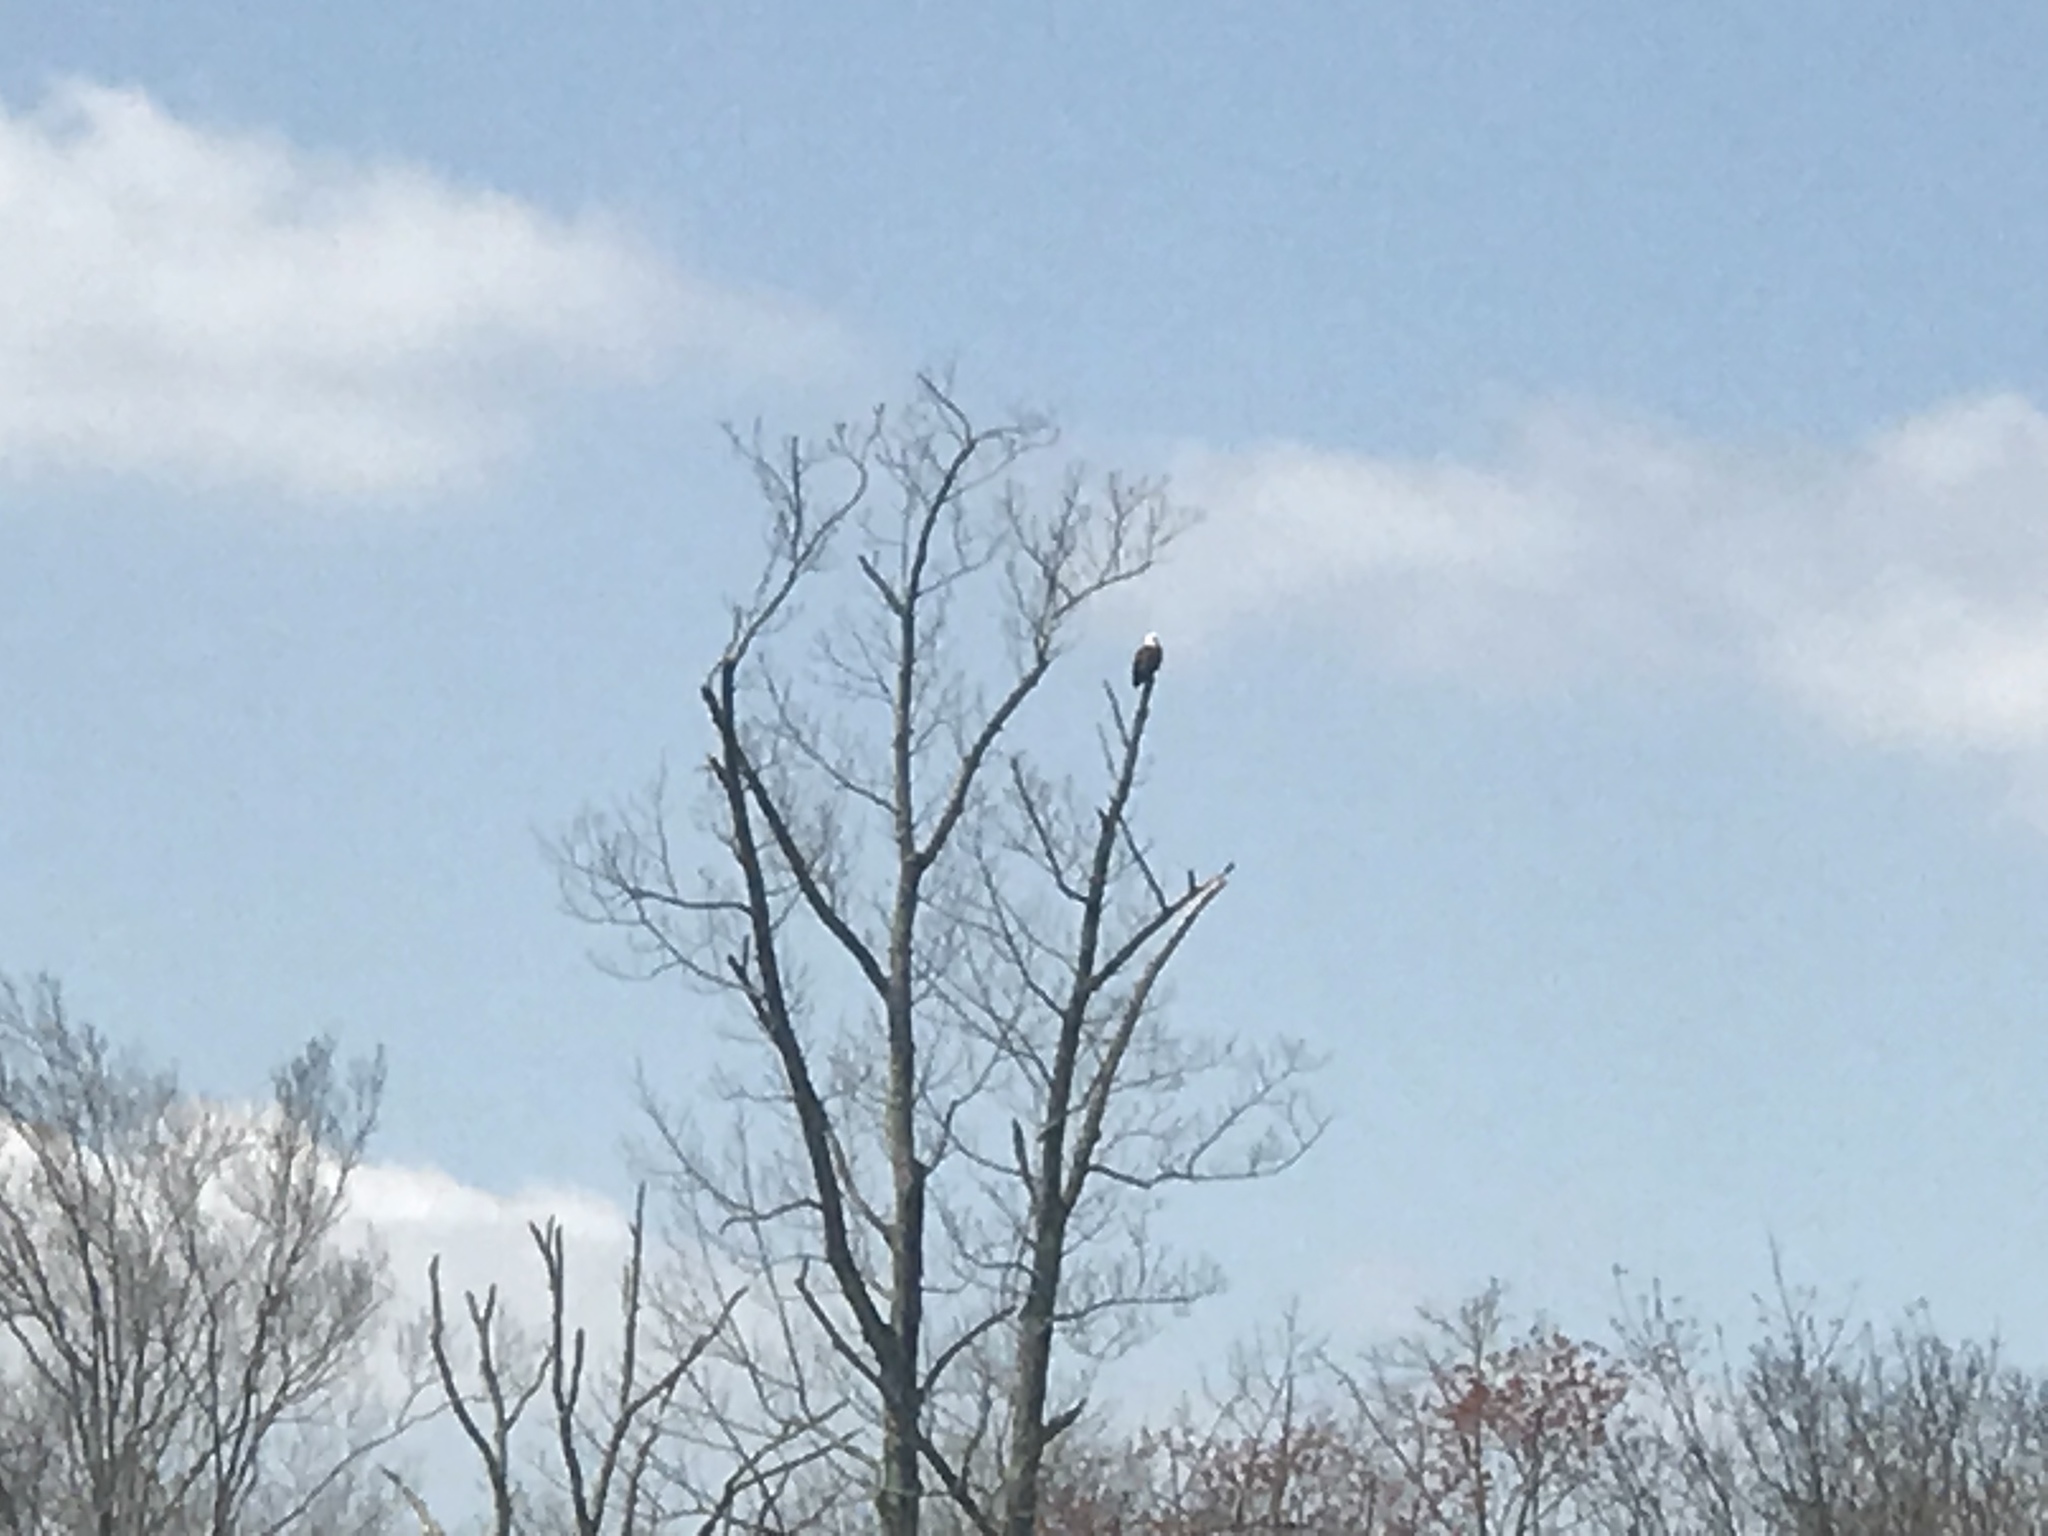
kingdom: Animalia
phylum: Chordata
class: Aves
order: Accipitriformes
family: Accipitridae
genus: Haliaeetus
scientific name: Haliaeetus leucocephalus
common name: Bald eagle
